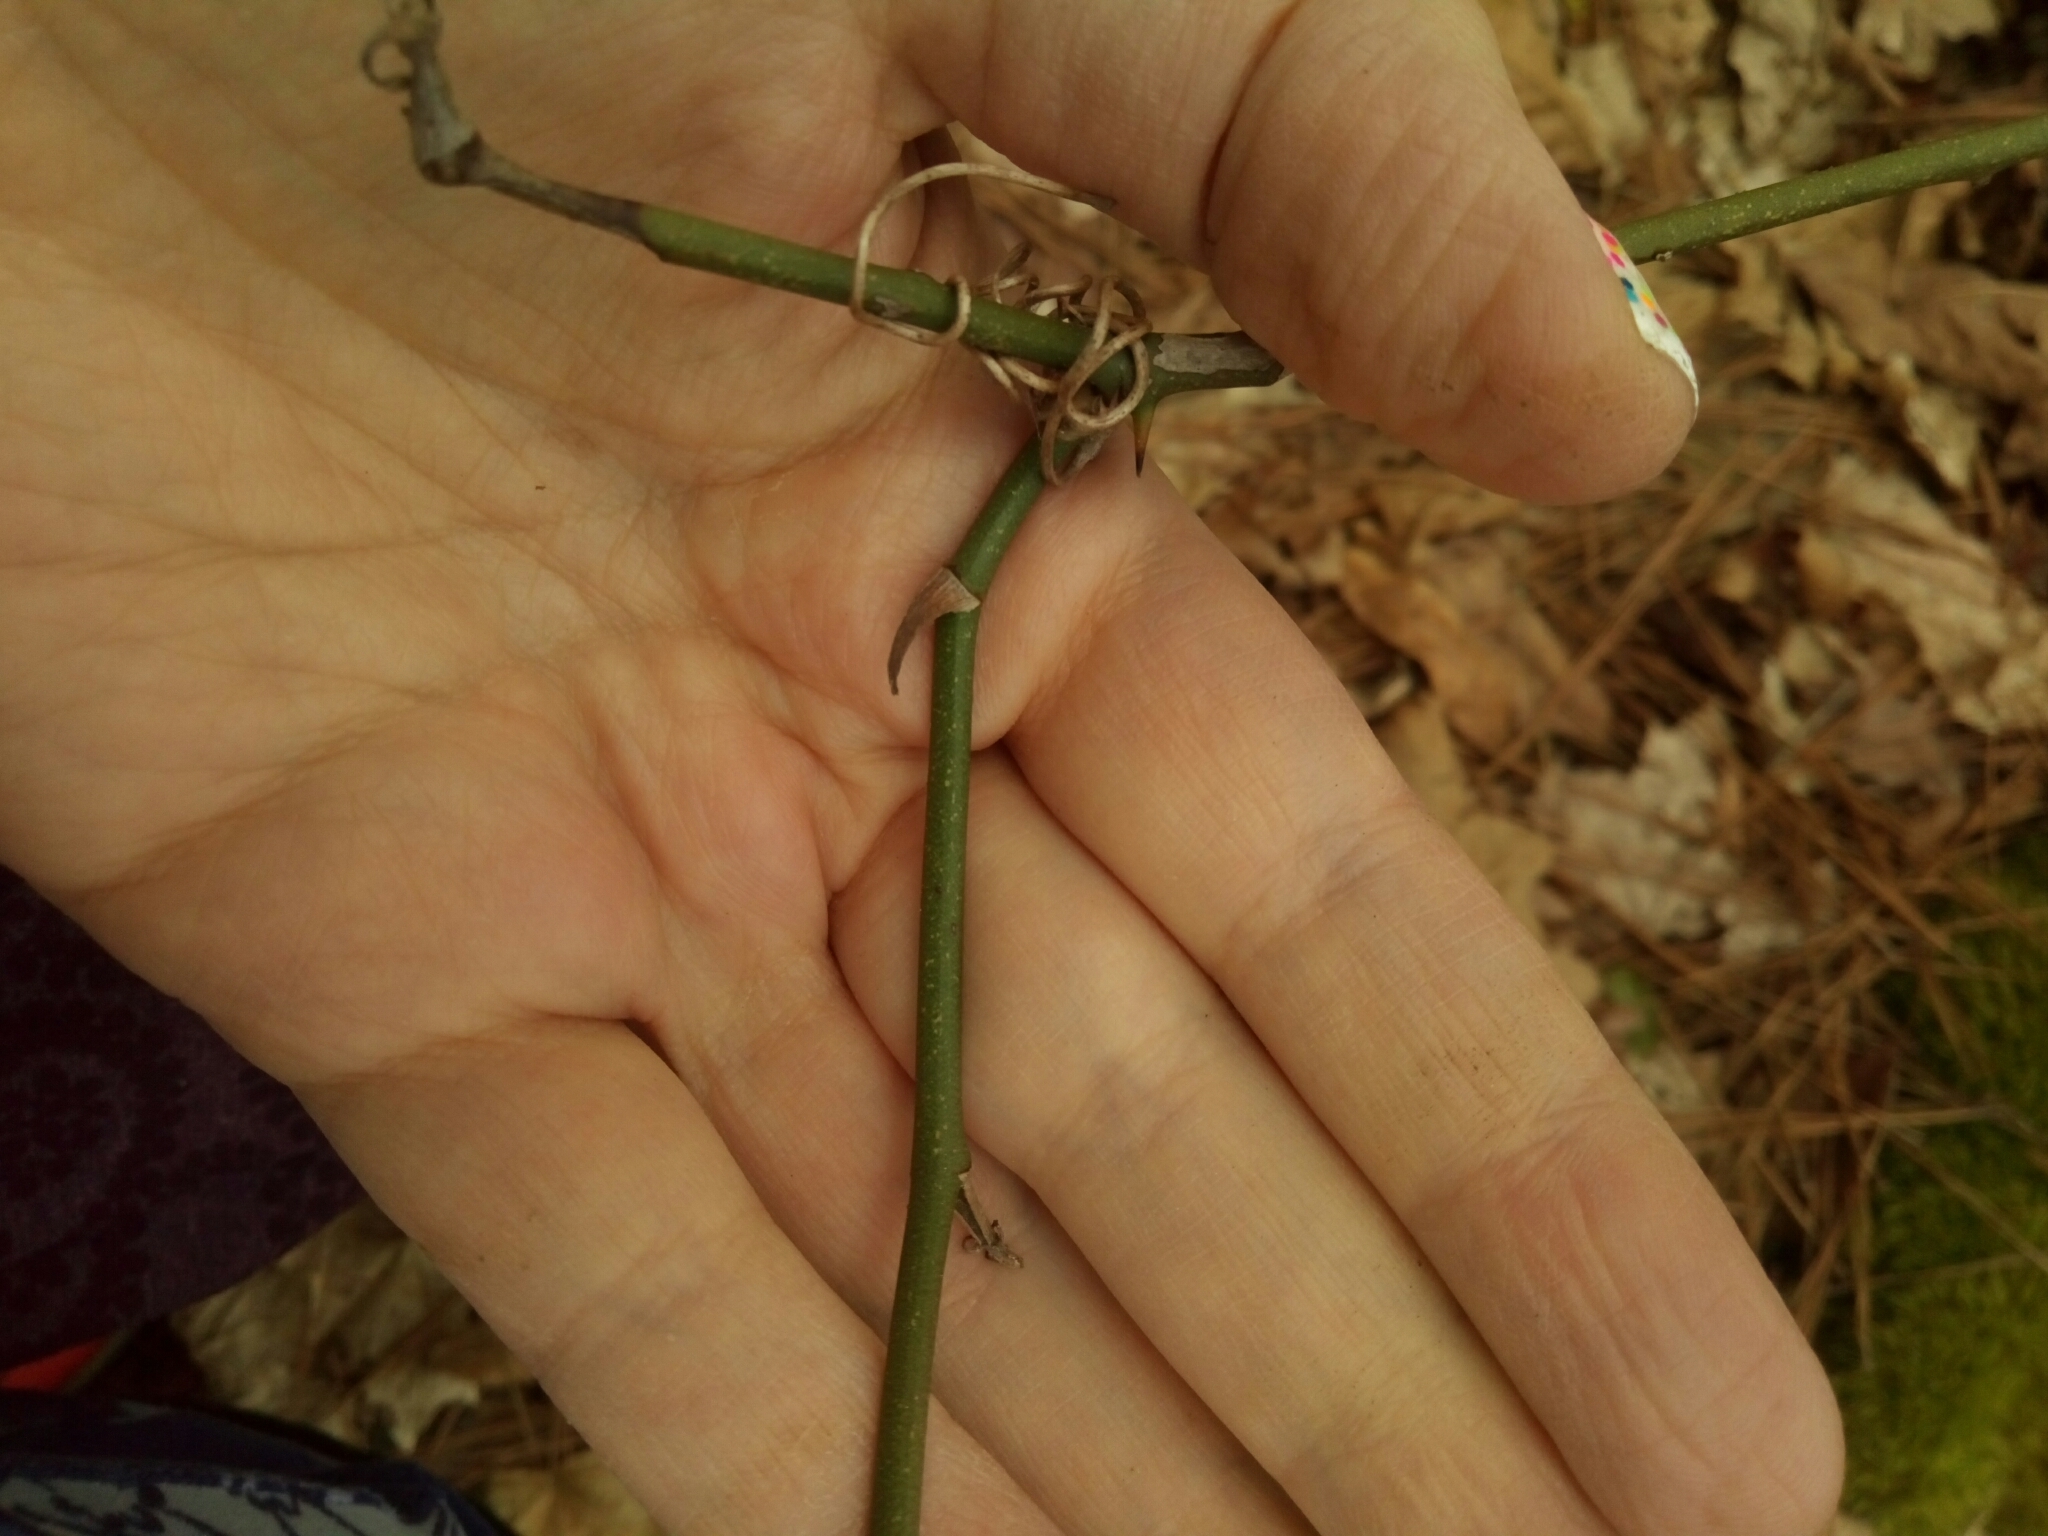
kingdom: Plantae
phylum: Tracheophyta
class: Liliopsida
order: Liliales
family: Smilacaceae
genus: Smilax
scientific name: Smilax glauca
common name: Cat greenbrier
